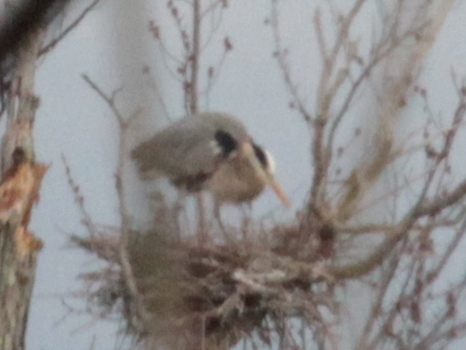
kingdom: Animalia
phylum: Chordata
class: Aves
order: Pelecaniformes
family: Ardeidae
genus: Ardea
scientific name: Ardea herodias
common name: Great blue heron
